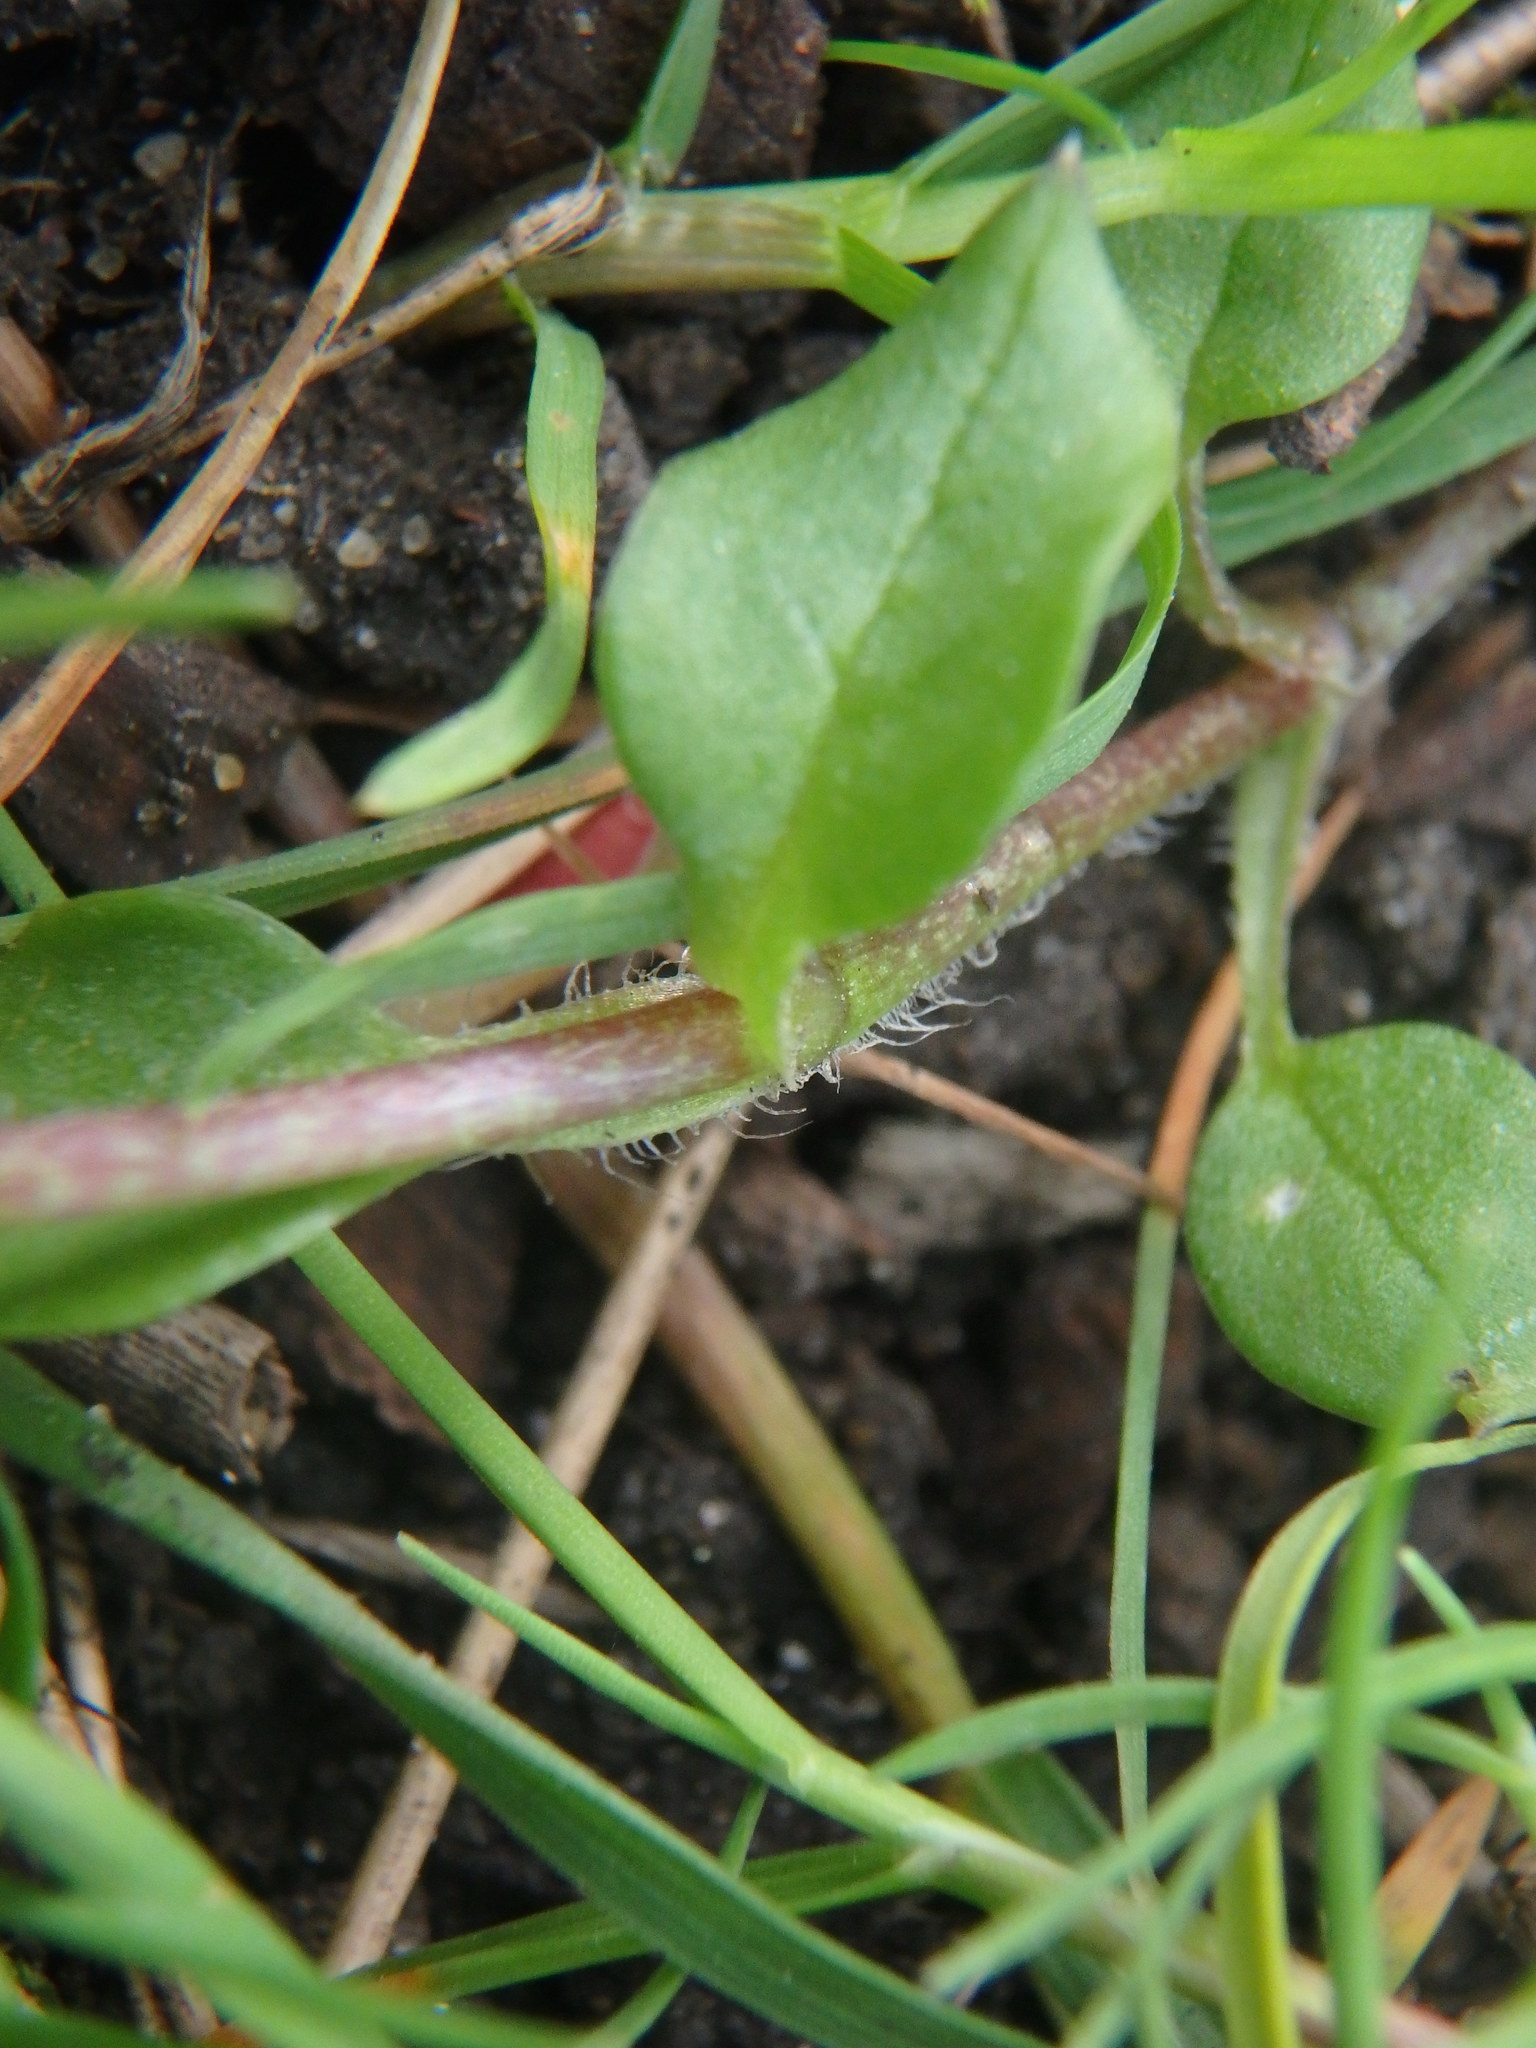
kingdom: Plantae
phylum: Tracheophyta
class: Magnoliopsida
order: Caryophyllales
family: Caryophyllaceae
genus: Stellaria
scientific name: Stellaria media
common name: Common chickweed
